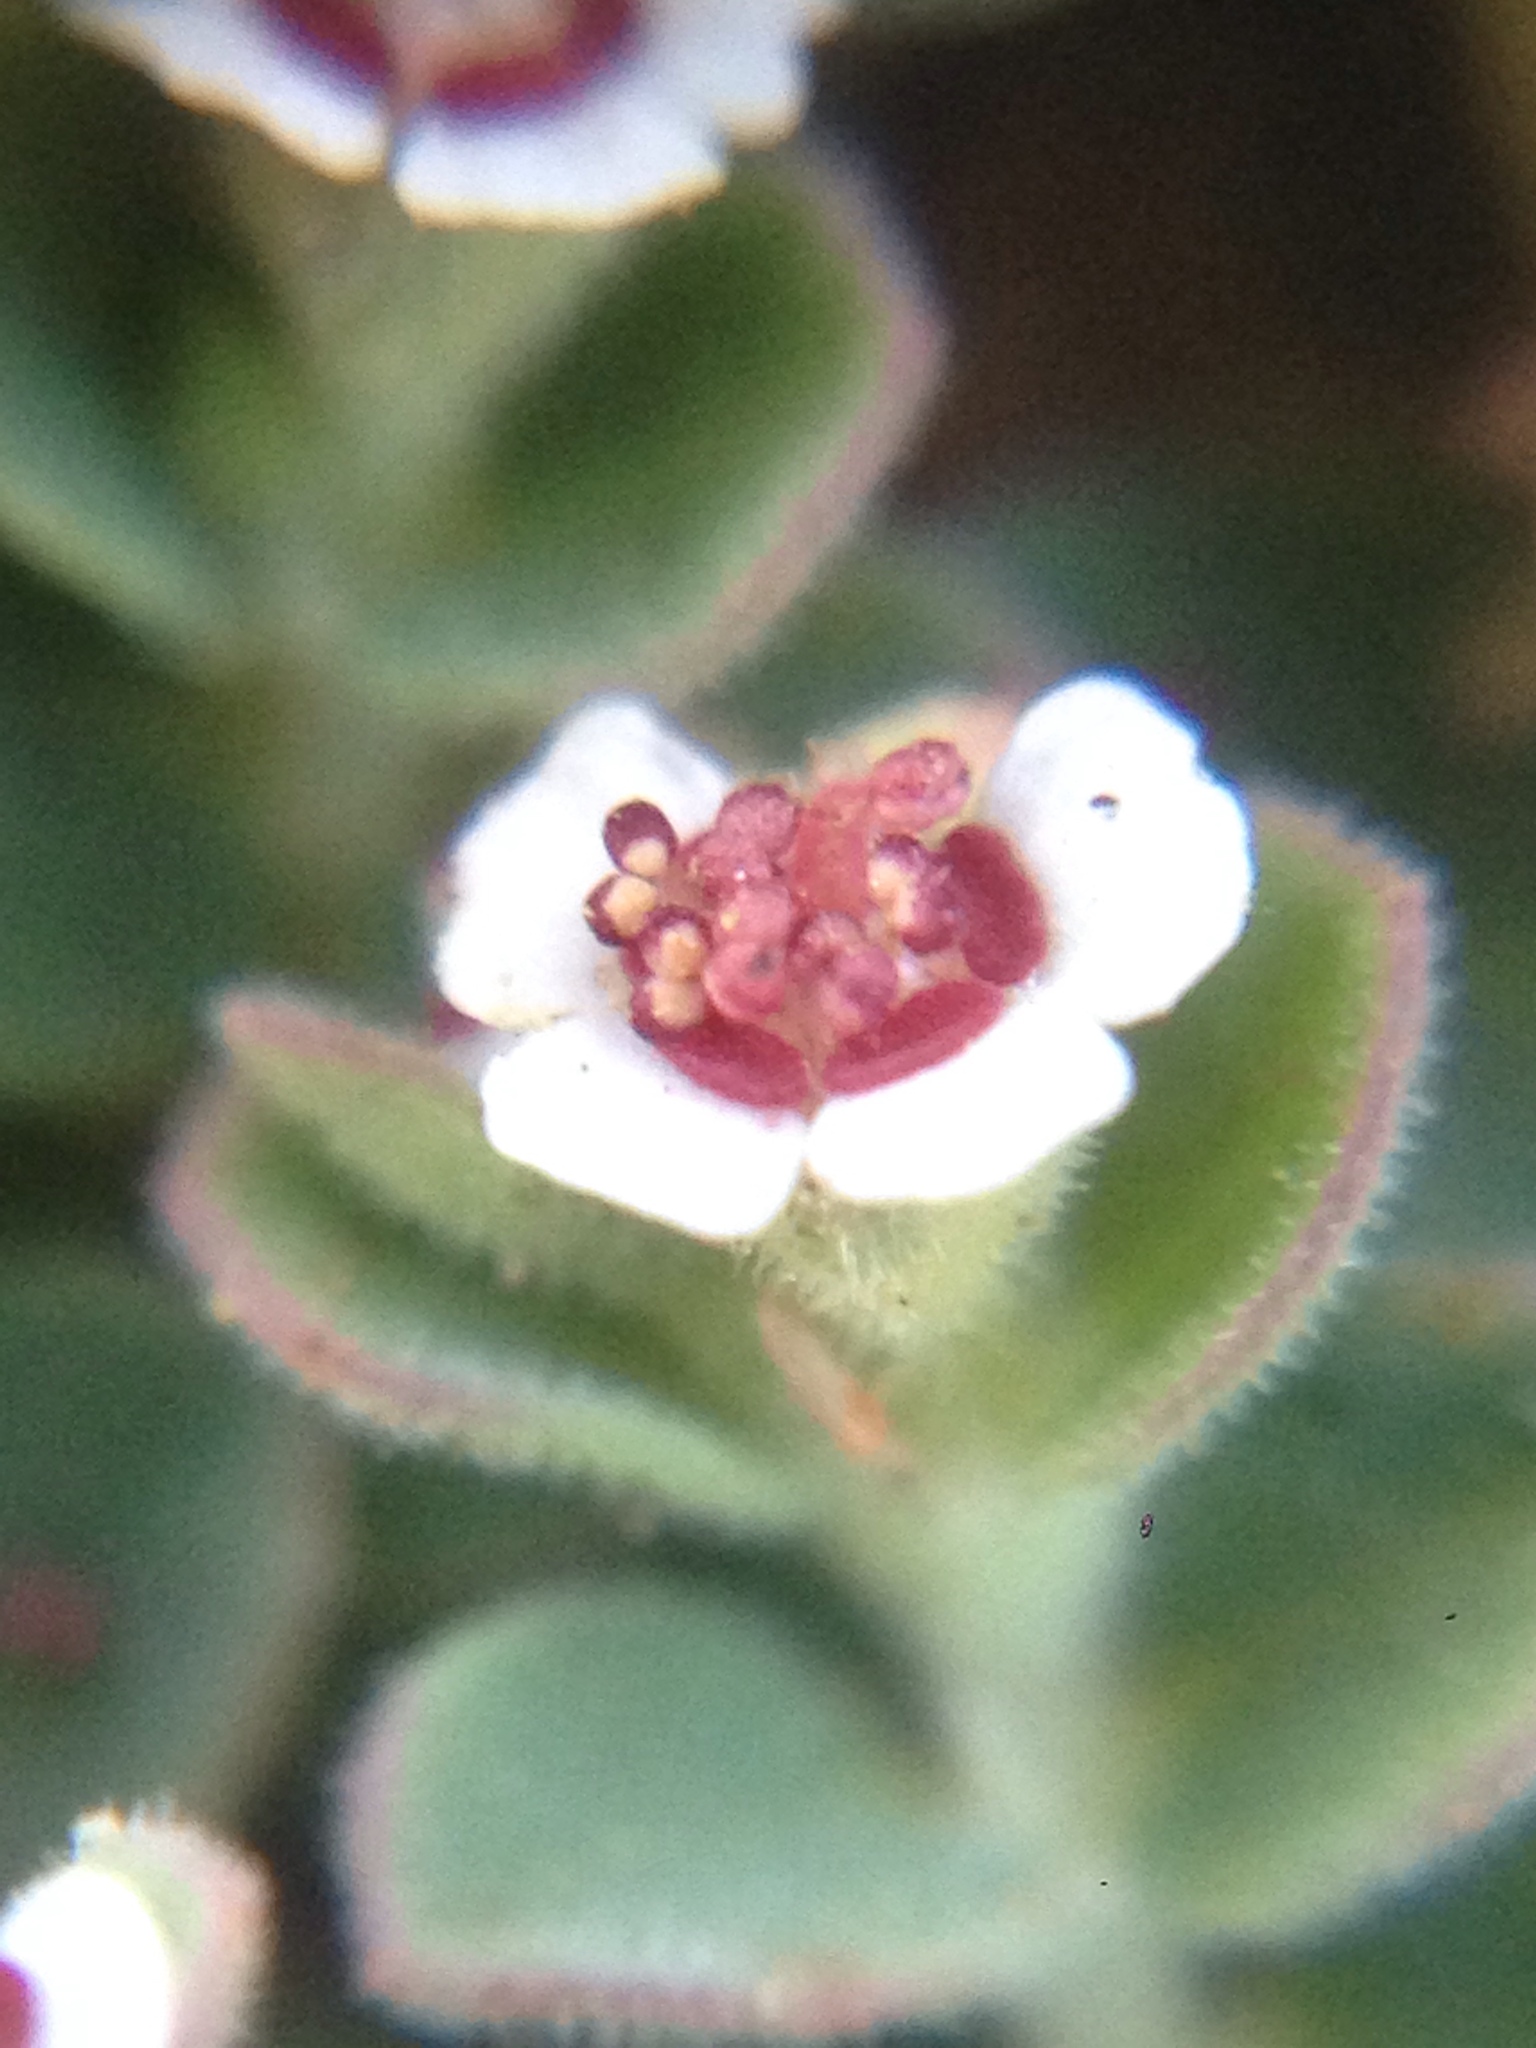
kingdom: Plantae
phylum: Tracheophyta
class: Magnoliopsida
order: Malpighiales
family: Euphorbiaceae
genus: Euphorbia
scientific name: Euphorbia polycarpa
